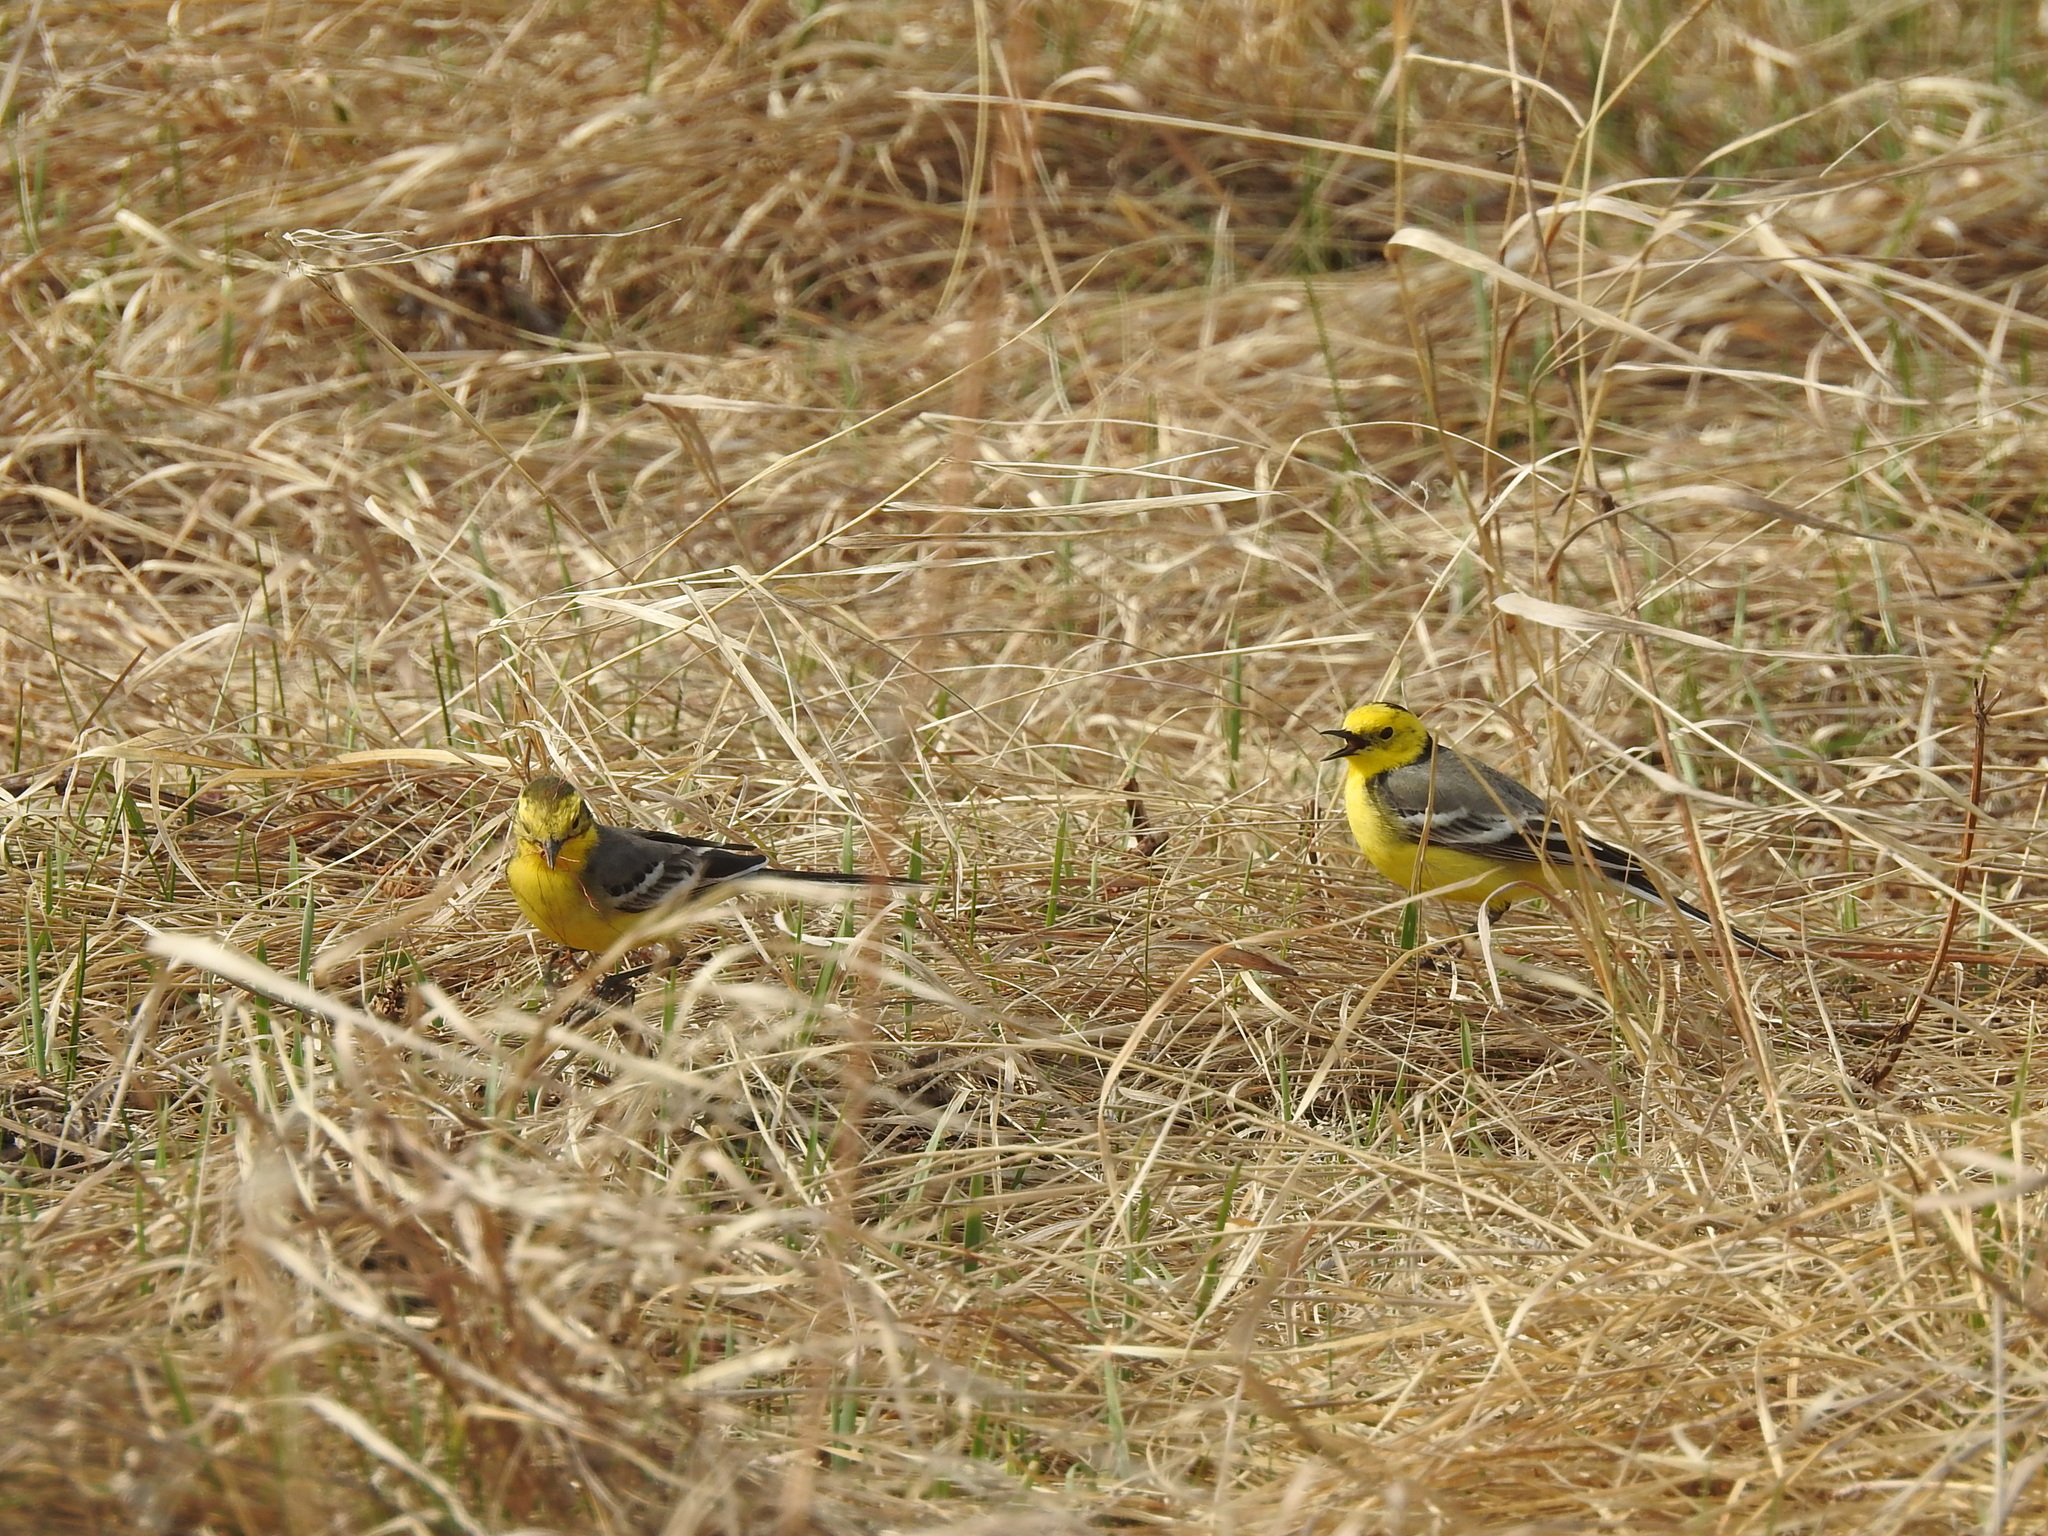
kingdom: Animalia
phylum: Chordata
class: Aves
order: Passeriformes
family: Motacillidae
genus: Motacilla
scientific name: Motacilla citreola
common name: Citrine wagtail
